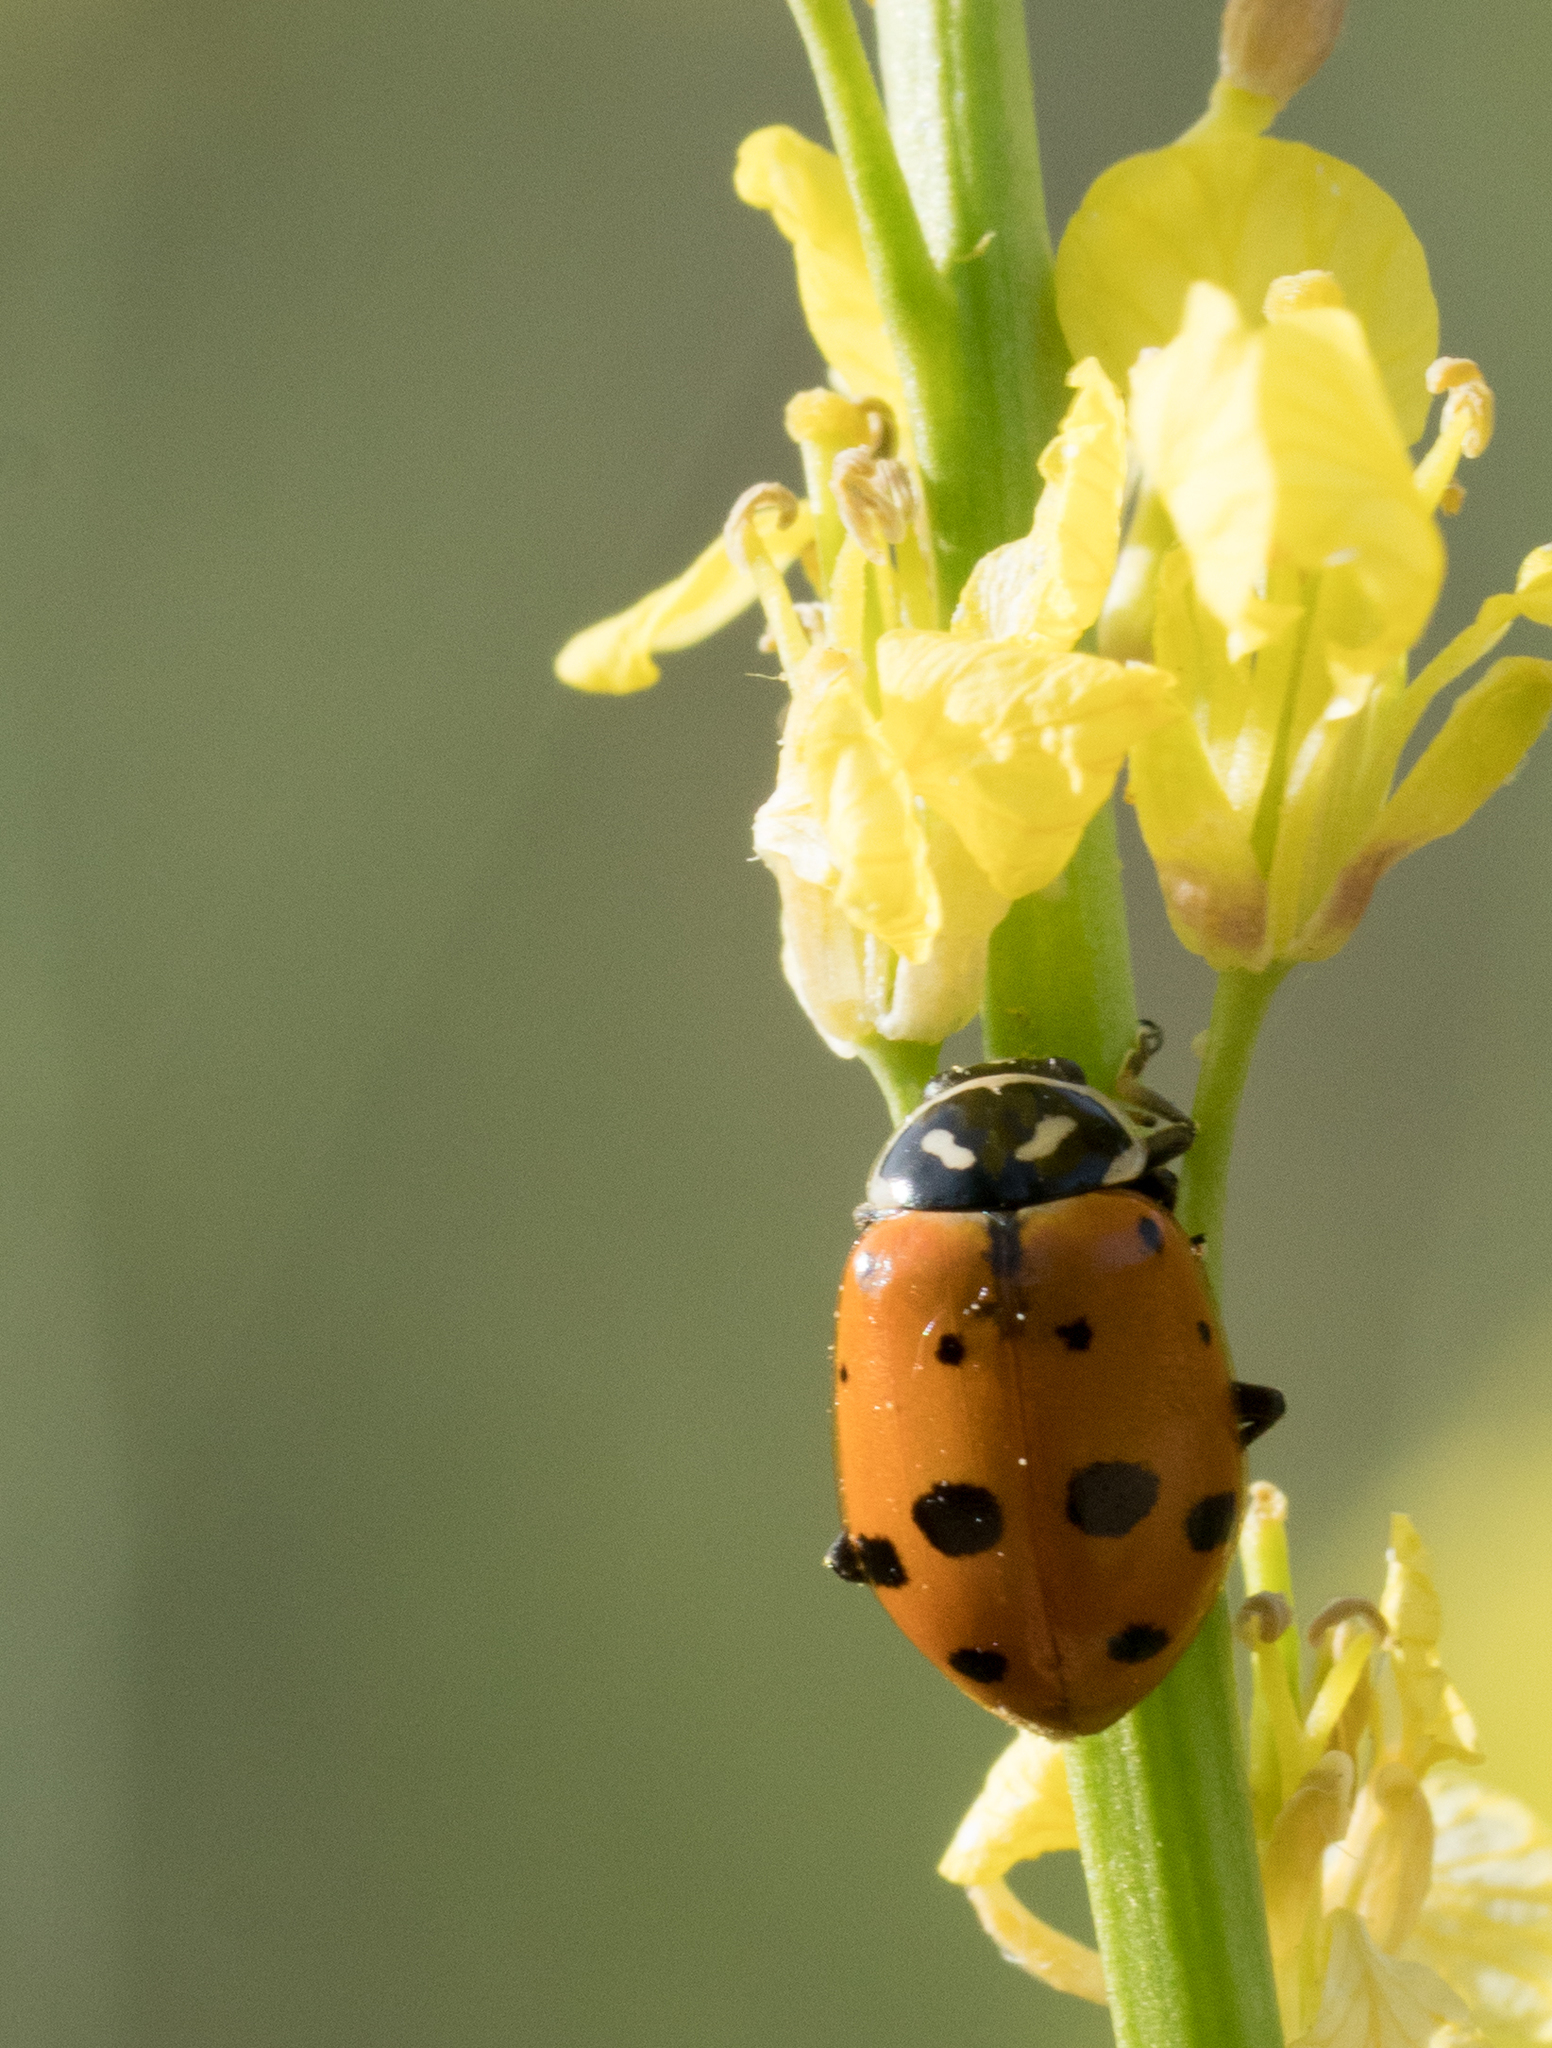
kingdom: Animalia
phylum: Arthropoda
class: Insecta
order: Coleoptera
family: Coccinellidae
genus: Hippodamia
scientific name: Hippodamia convergens
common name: Convergent lady beetle
